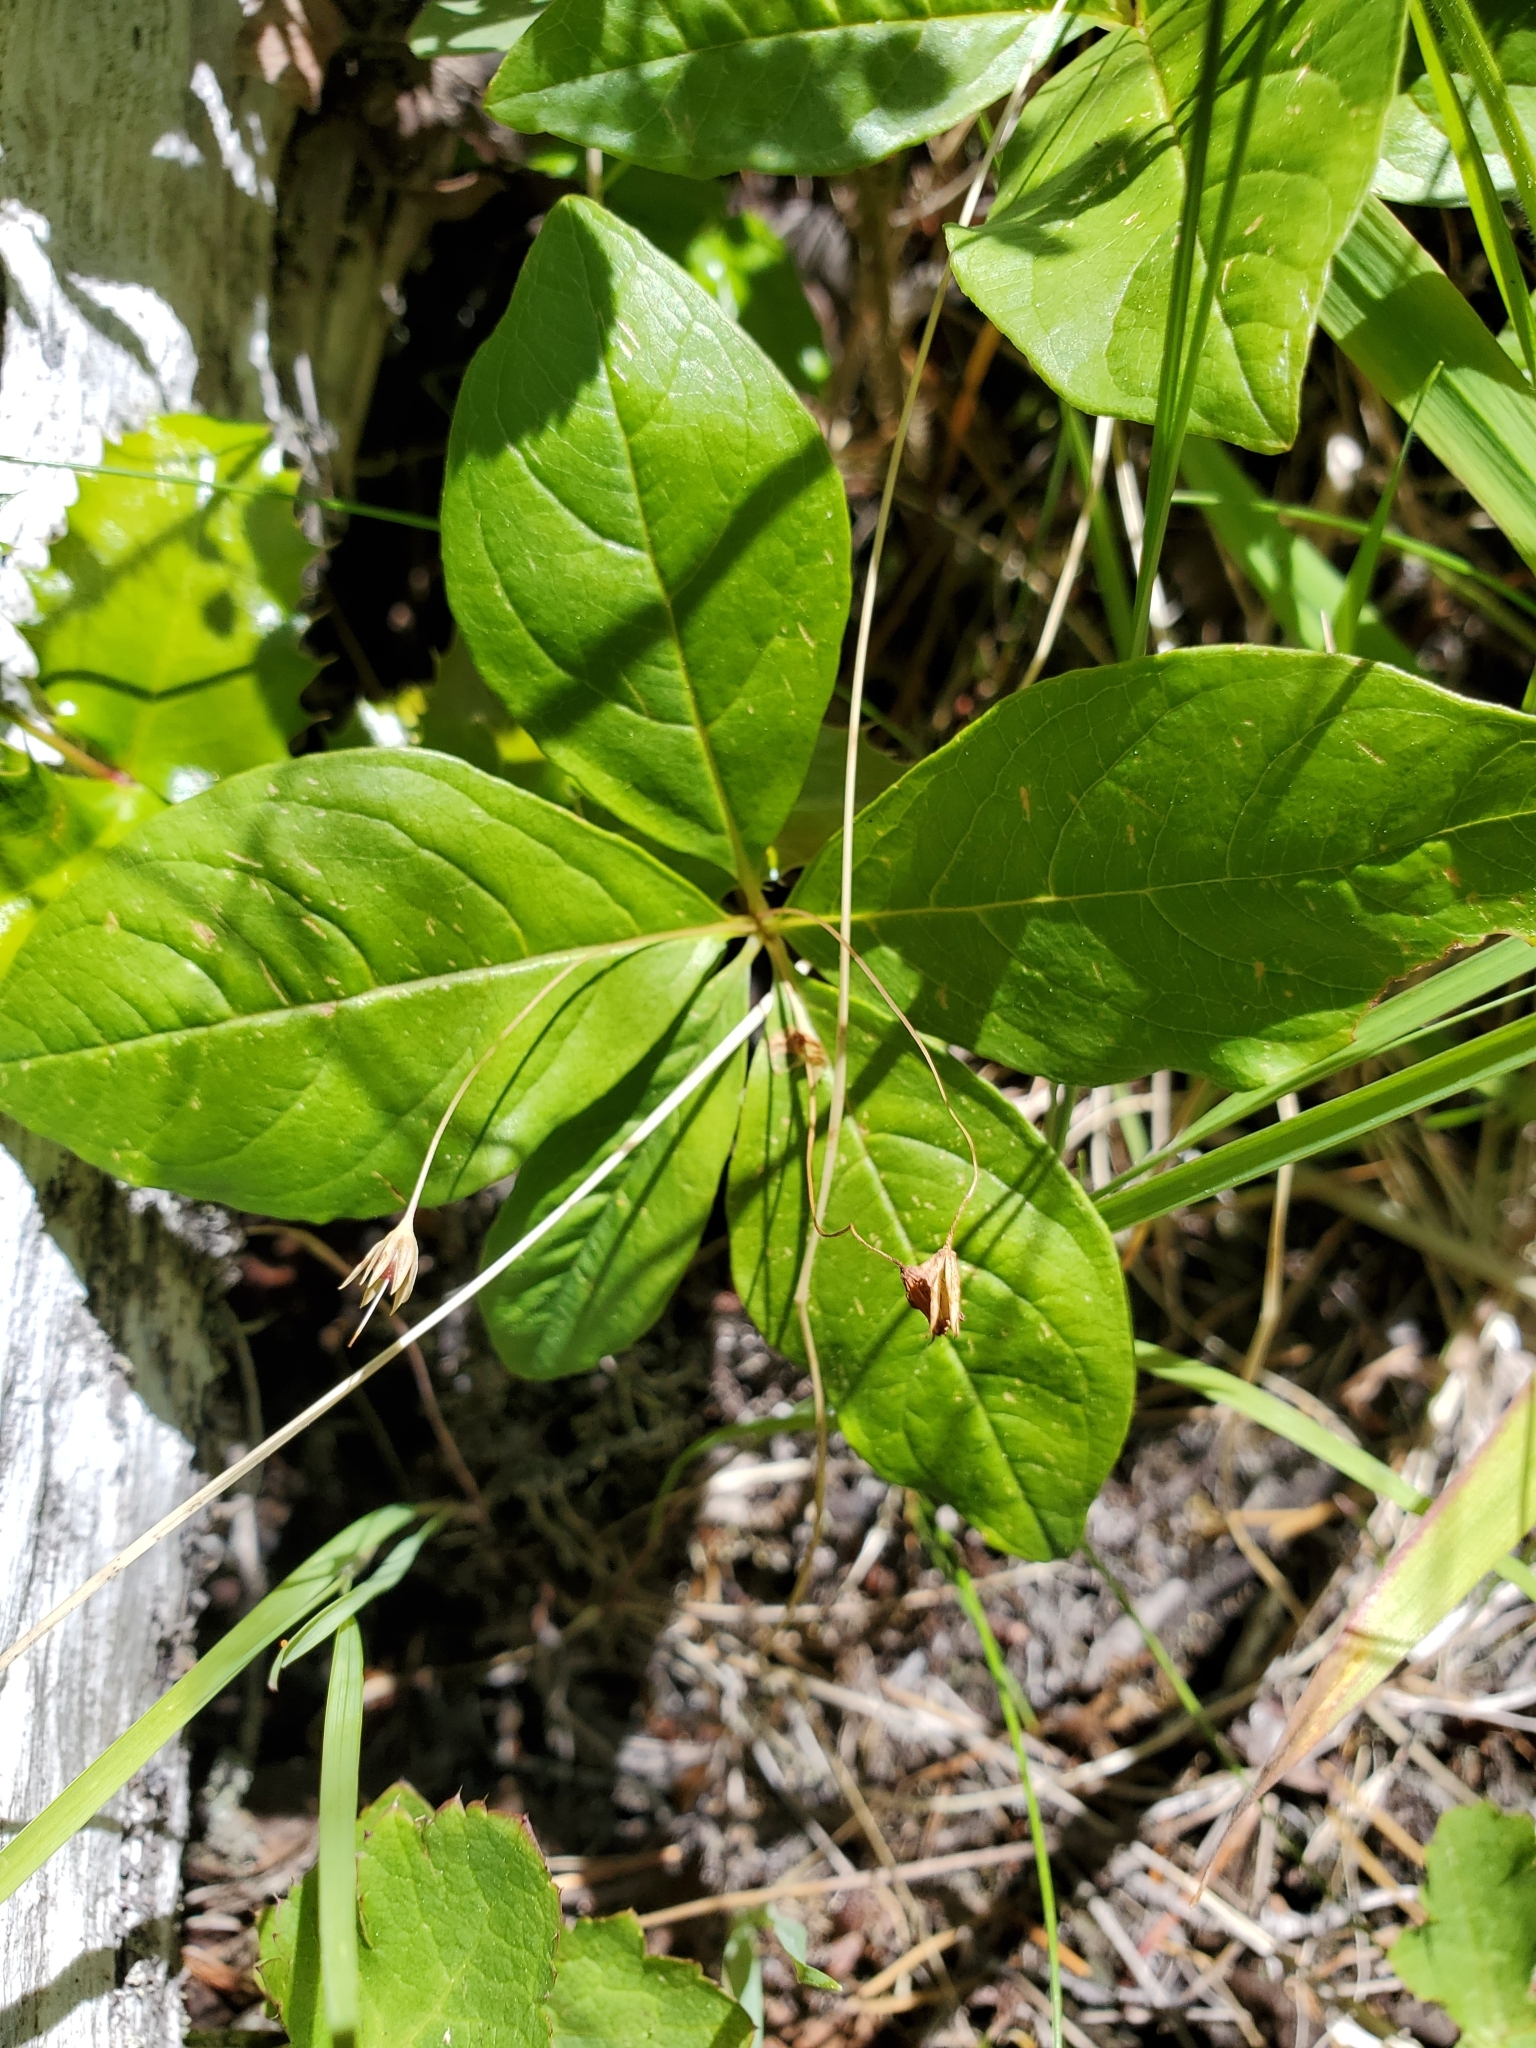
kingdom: Plantae
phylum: Tracheophyta
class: Magnoliopsida
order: Ericales
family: Primulaceae
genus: Lysimachia
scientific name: Lysimachia latifolia
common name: Pacific starflower
